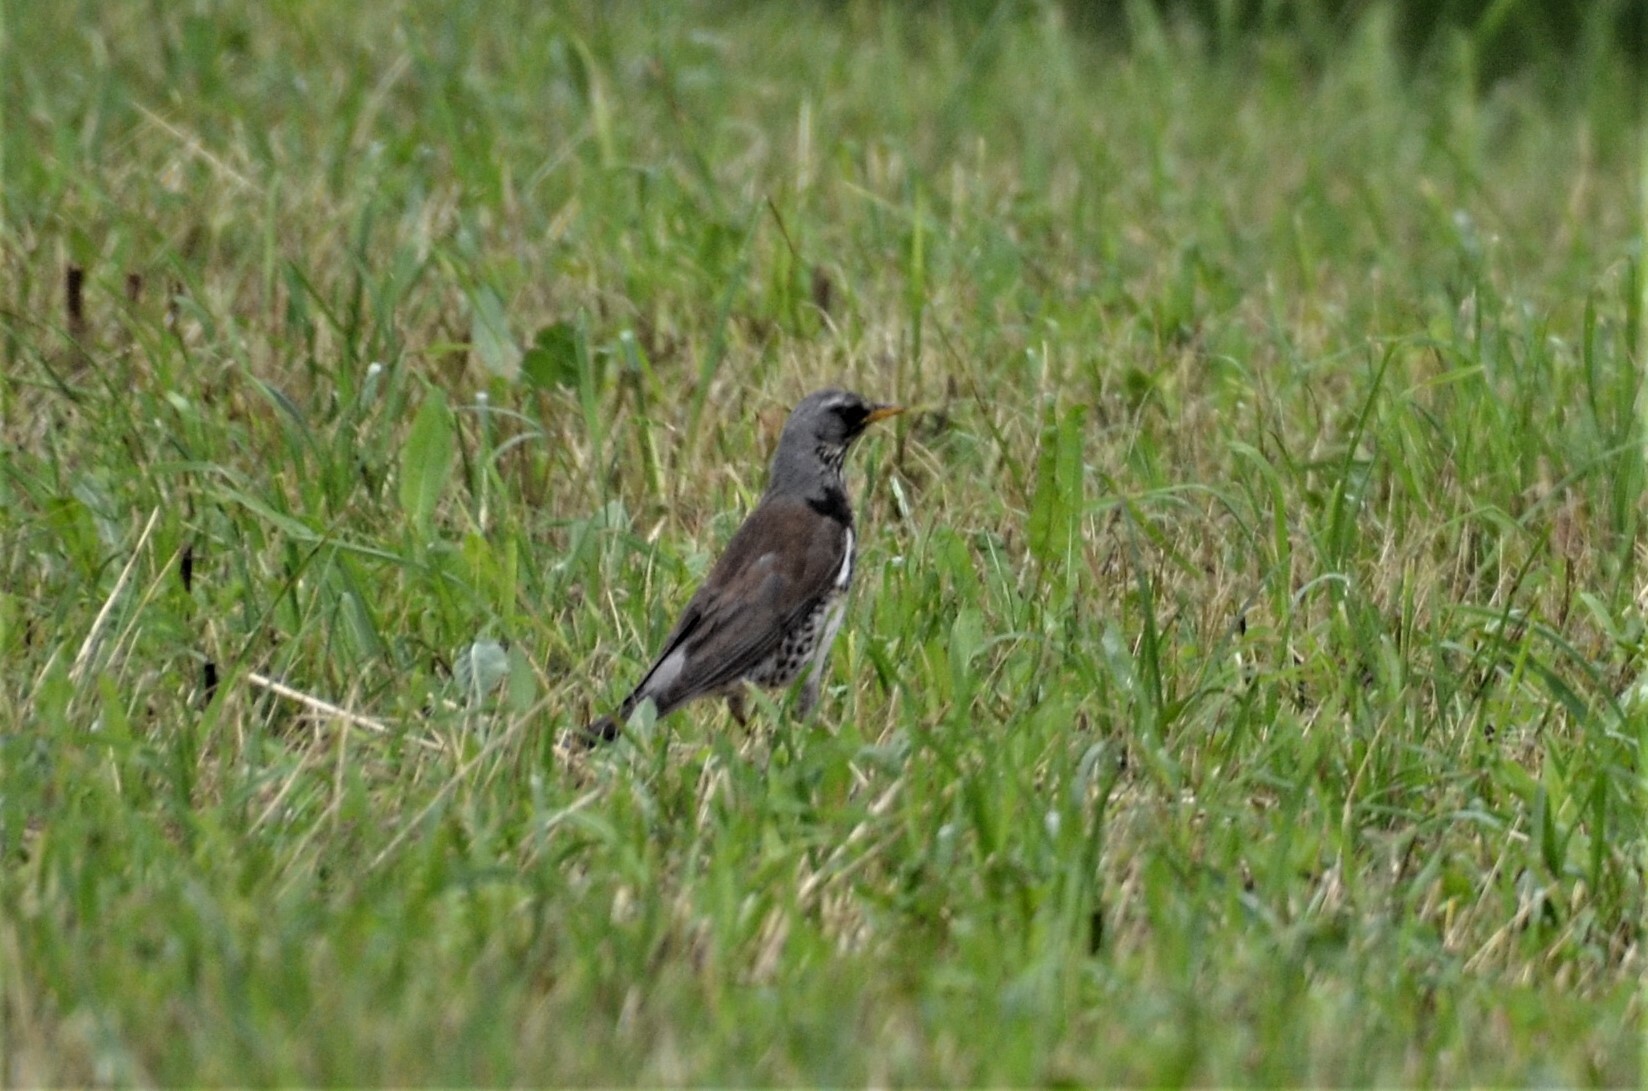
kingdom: Animalia
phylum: Chordata
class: Aves
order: Passeriformes
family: Turdidae
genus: Turdus
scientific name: Turdus pilaris
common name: Fieldfare
